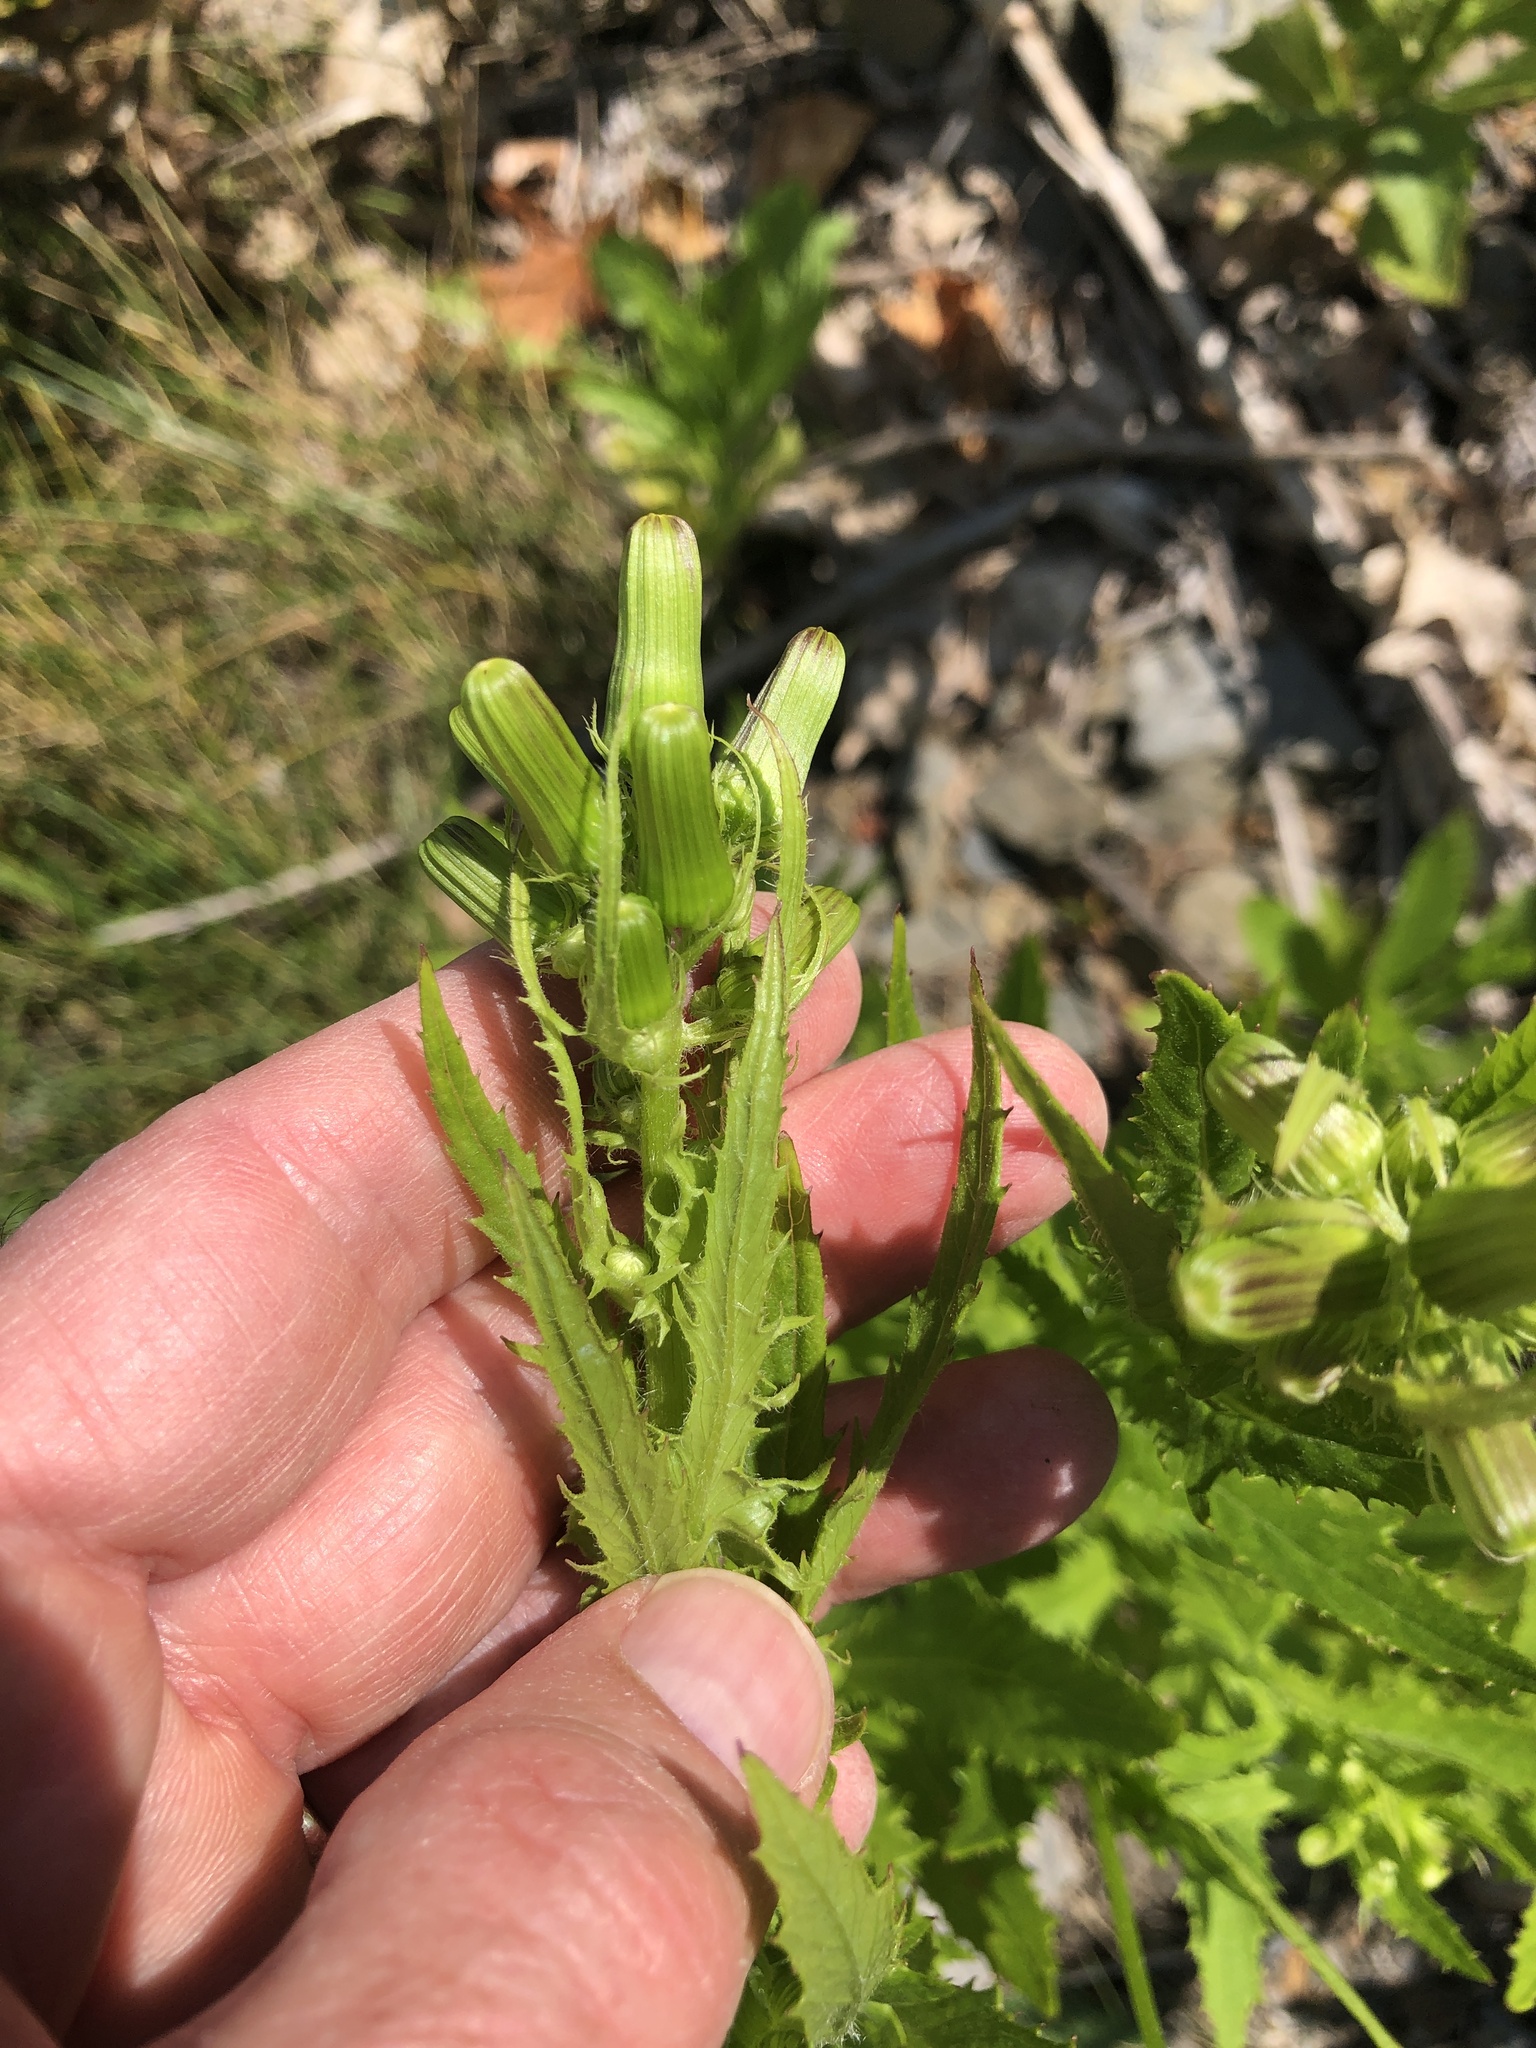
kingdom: Plantae
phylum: Tracheophyta
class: Magnoliopsida
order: Asterales
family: Asteraceae
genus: Erechtites
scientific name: Erechtites hieraciifolius
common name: American burnweed
